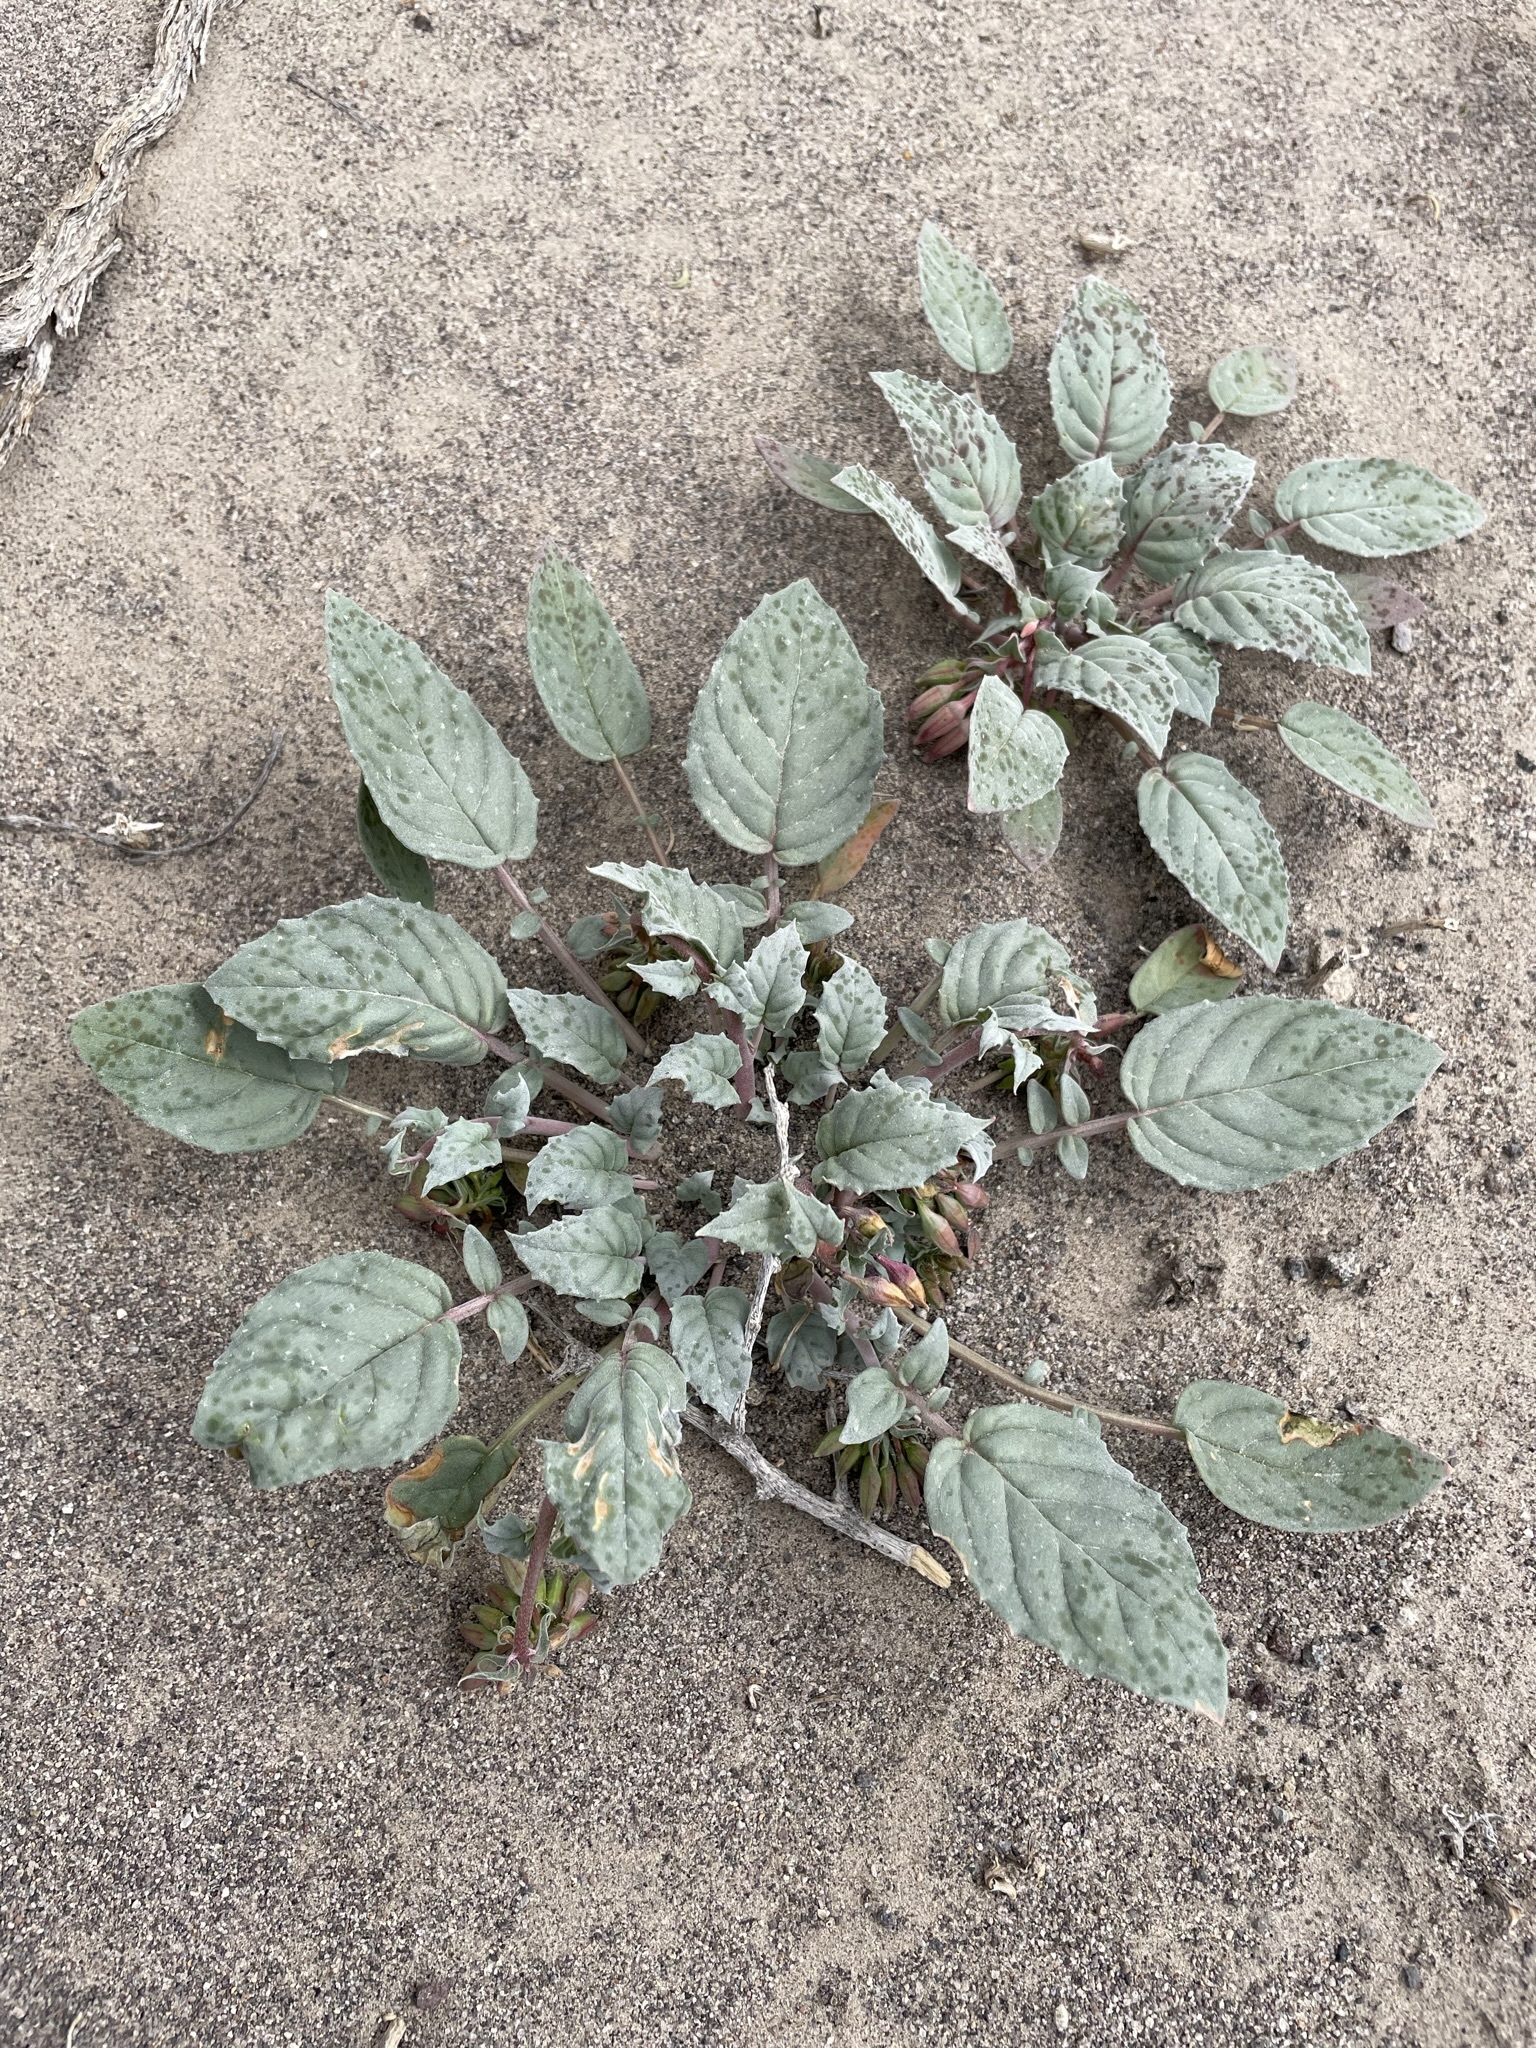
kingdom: Plantae
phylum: Tracheophyta
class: Magnoliopsida
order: Myrtales
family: Onagraceae
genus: Chylismia
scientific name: Chylismia claviformis
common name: Browneyes
